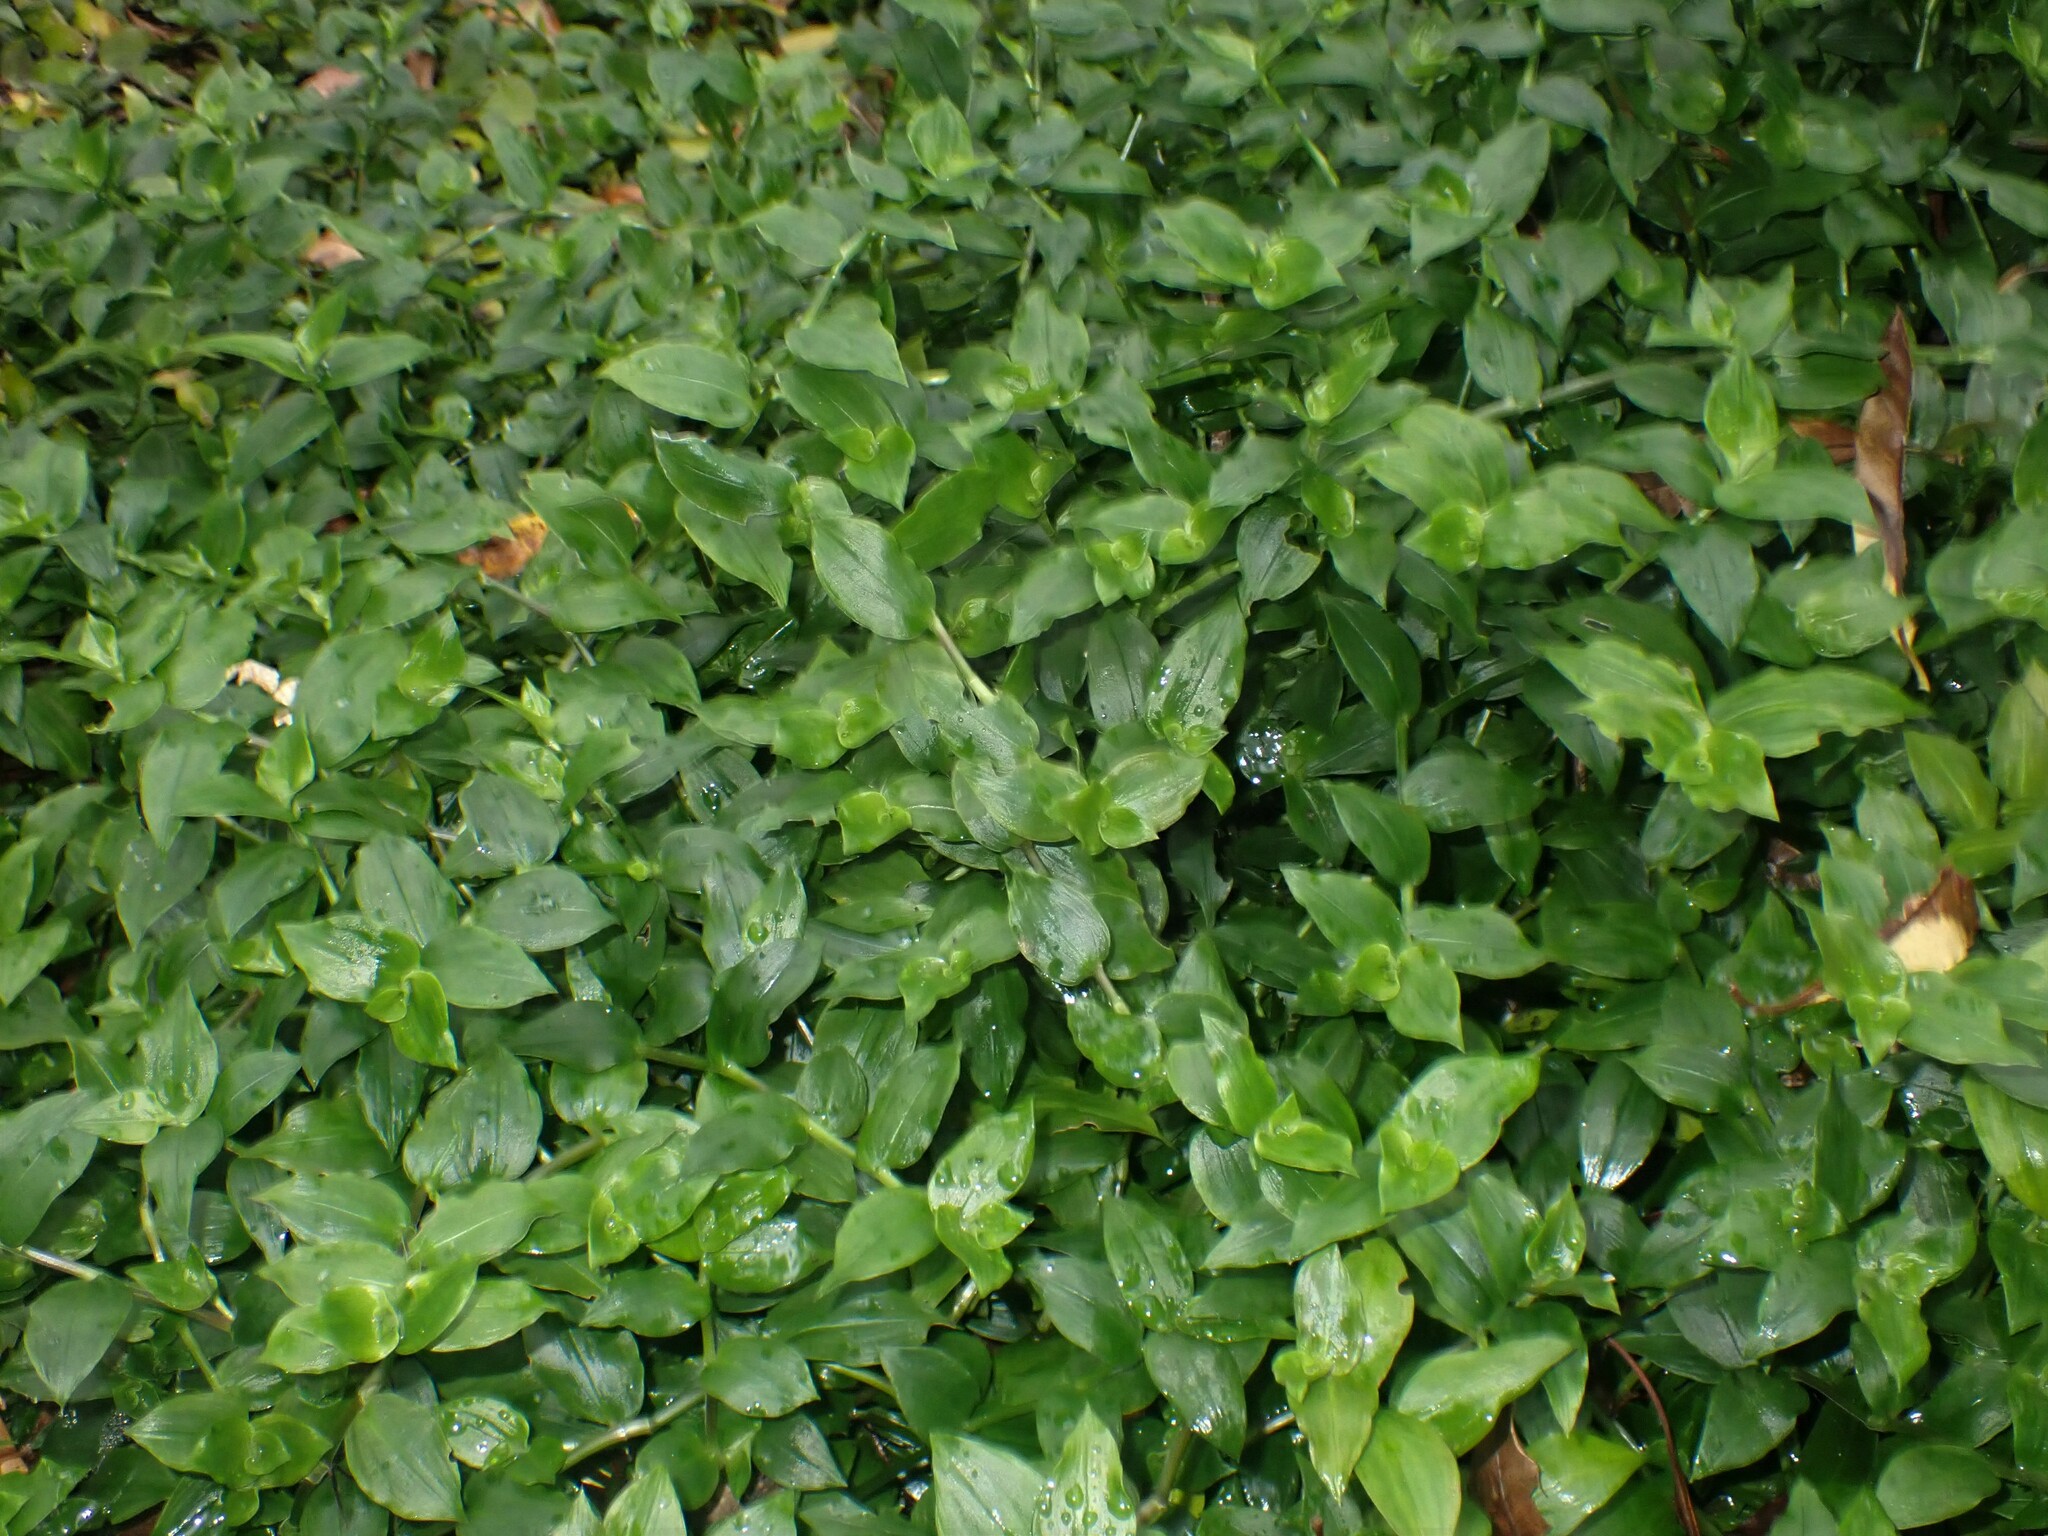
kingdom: Plantae
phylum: Tracheophyta
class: Liliopsida
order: Commelinales
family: Commelinaceae
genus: Tradescantia
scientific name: Tradescantia fluminensis
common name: Wandering-jew
